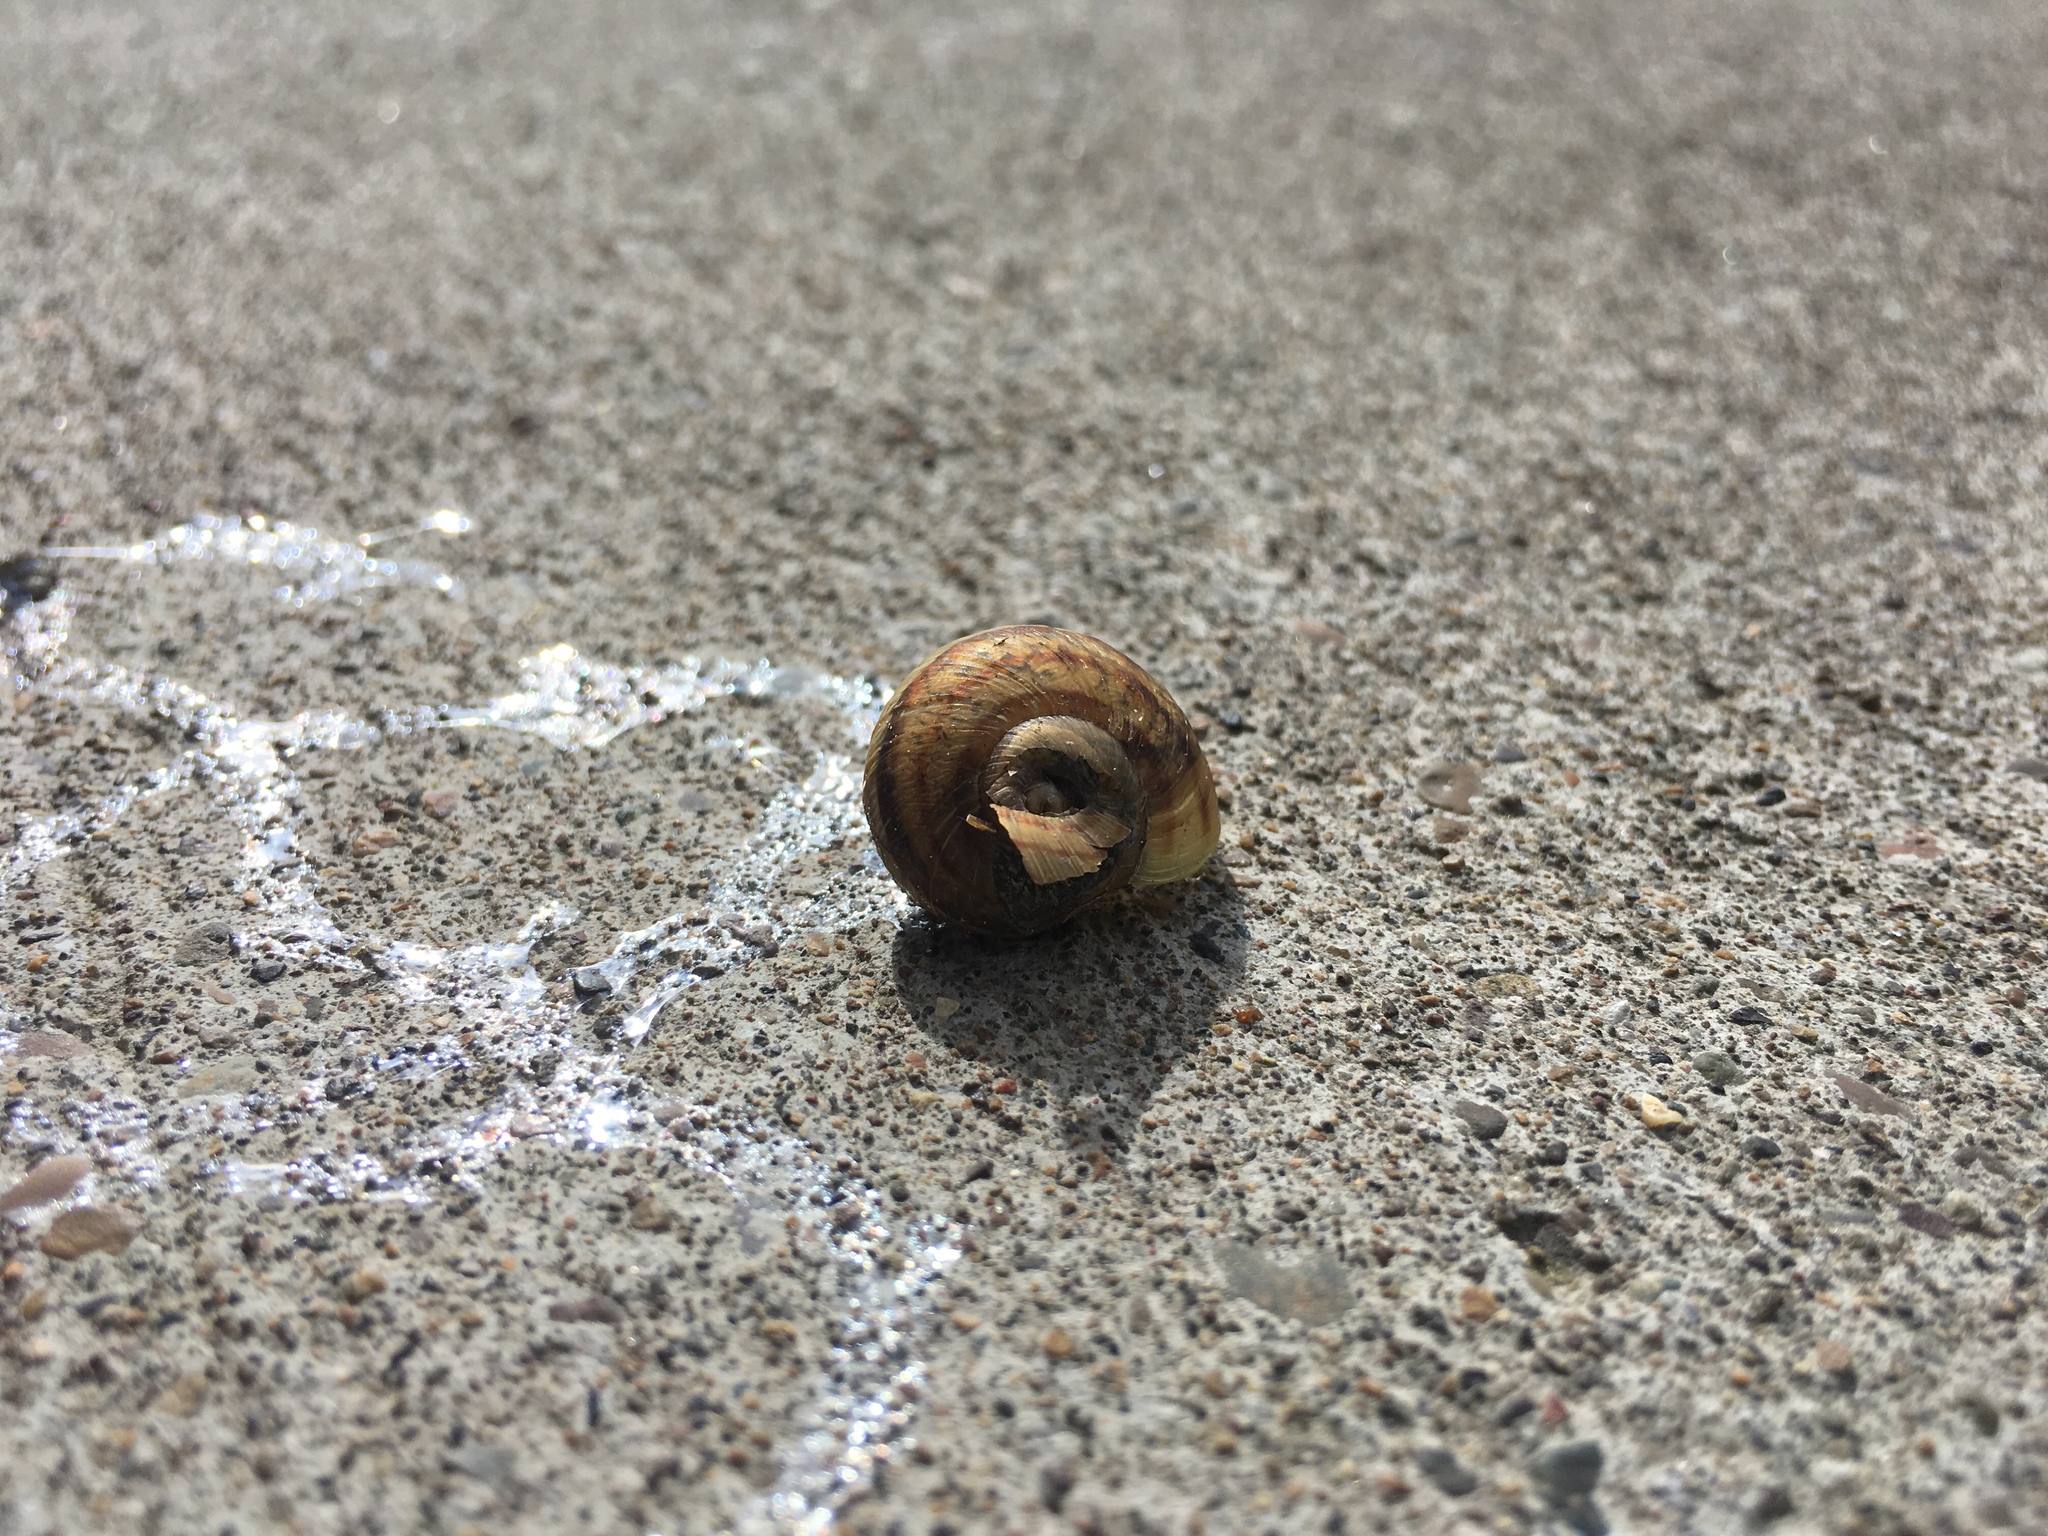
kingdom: Animalia
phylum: Mollusca
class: Gastropoda
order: Stylommatophora
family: Helicidae
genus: Cornu
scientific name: Cornu aspersum
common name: Brown garden snail
